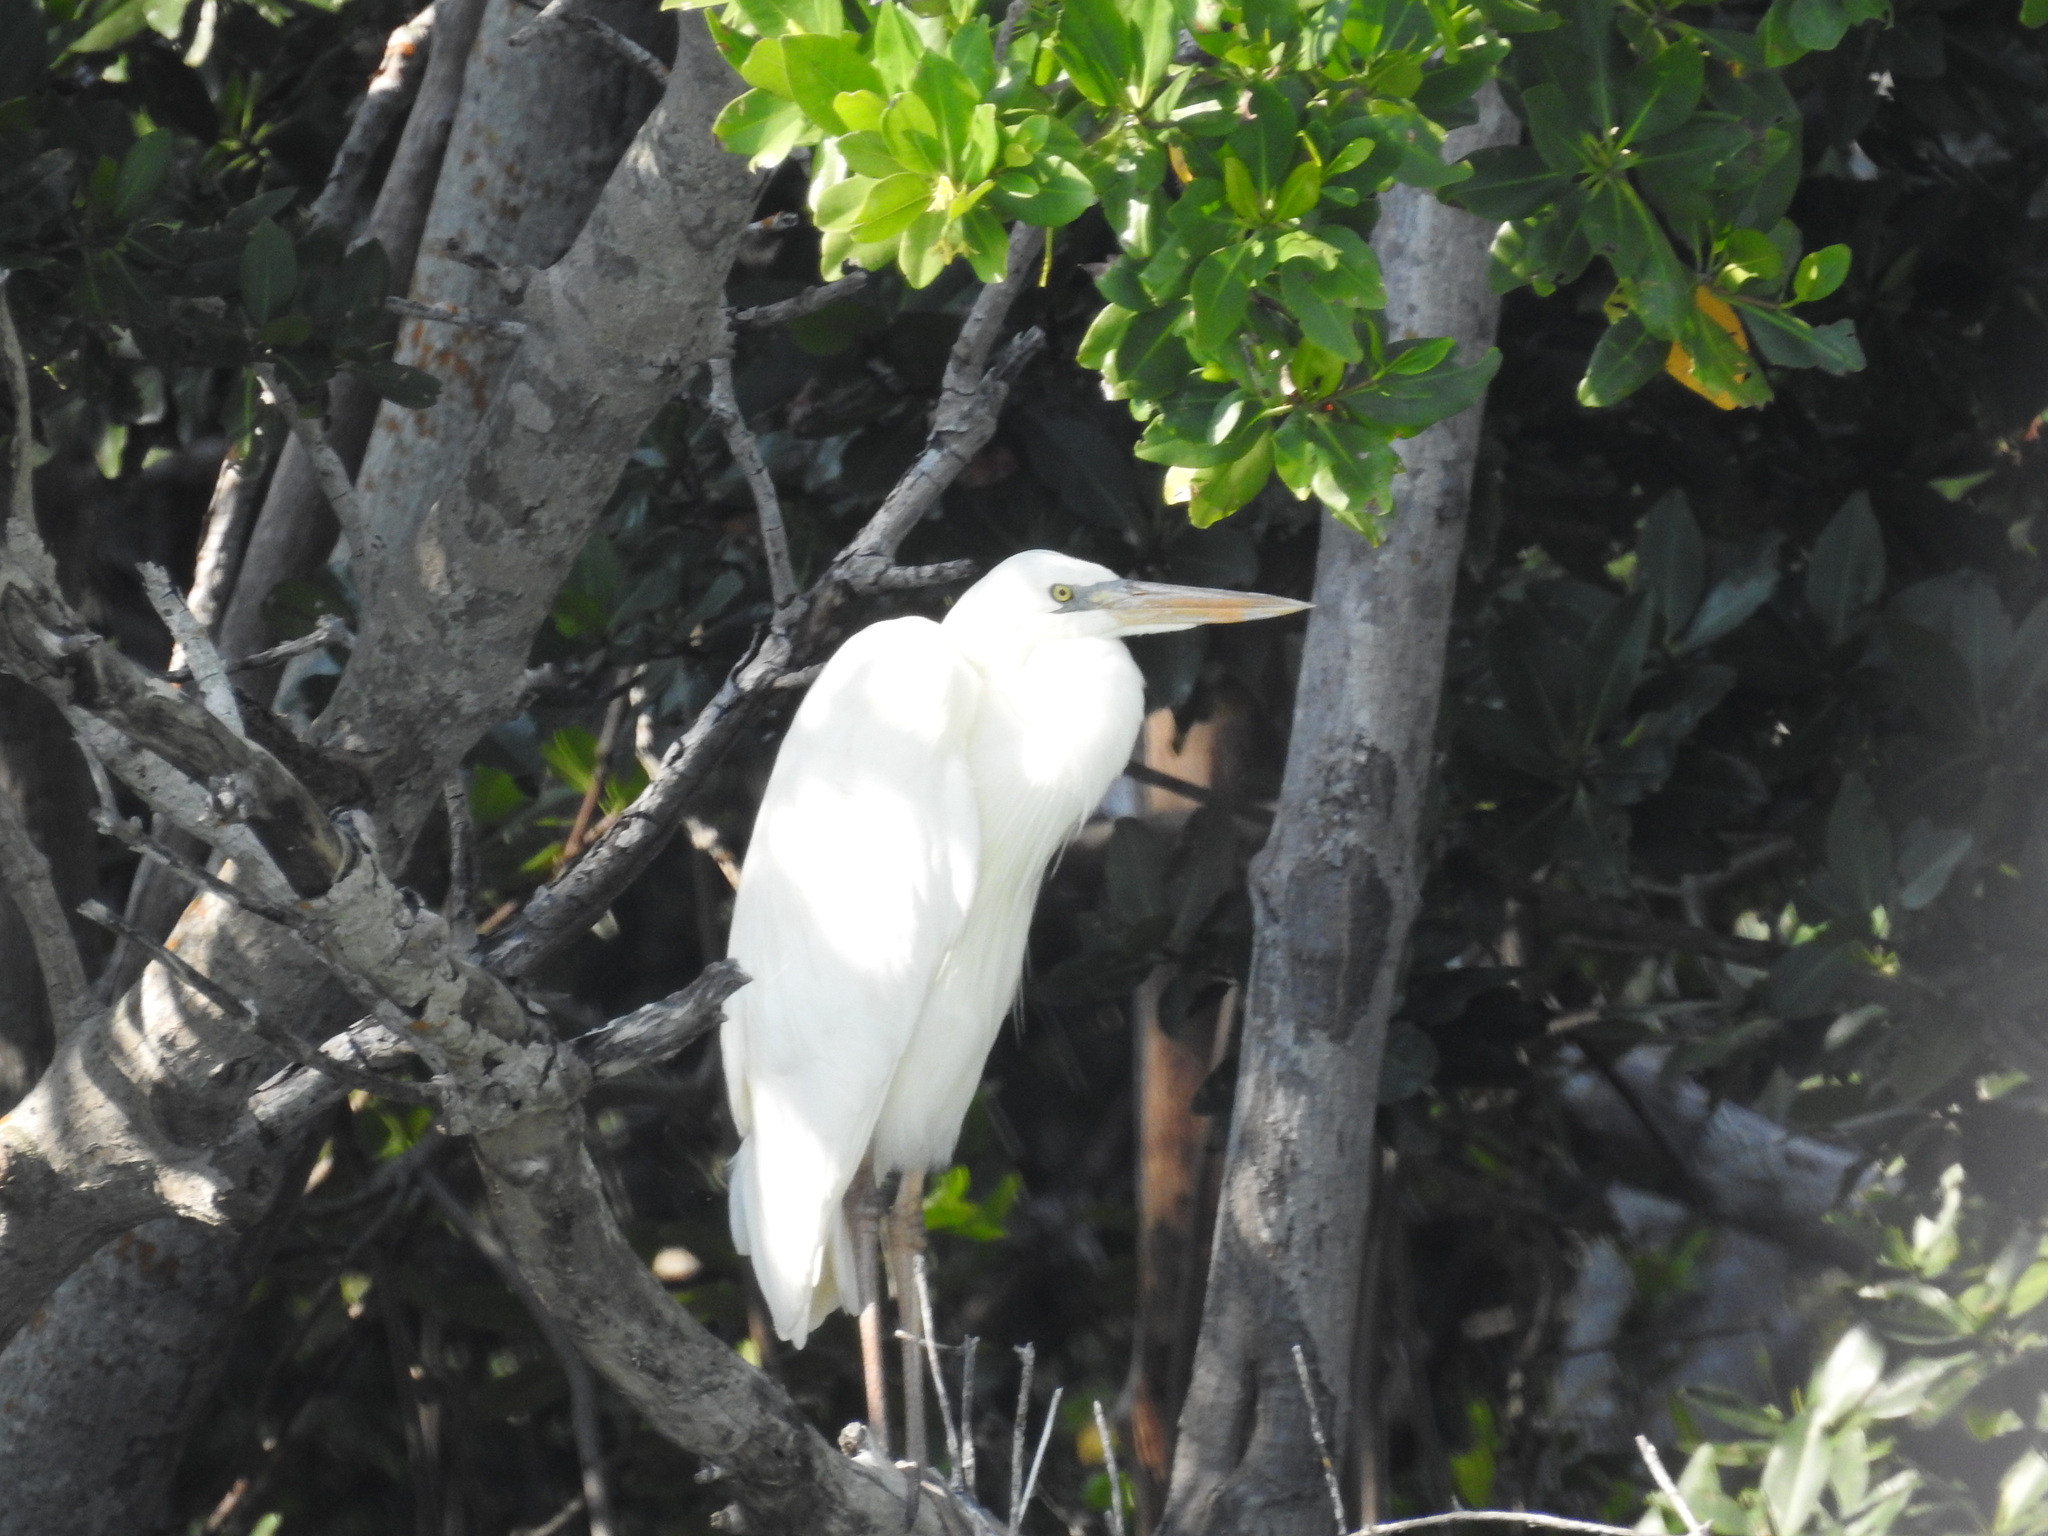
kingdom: Animalia
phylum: Chordata
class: Aves
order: Pelecaniformes
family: Ardeidae
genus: Ardea
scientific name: Ardea herodias
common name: Great blue heron
